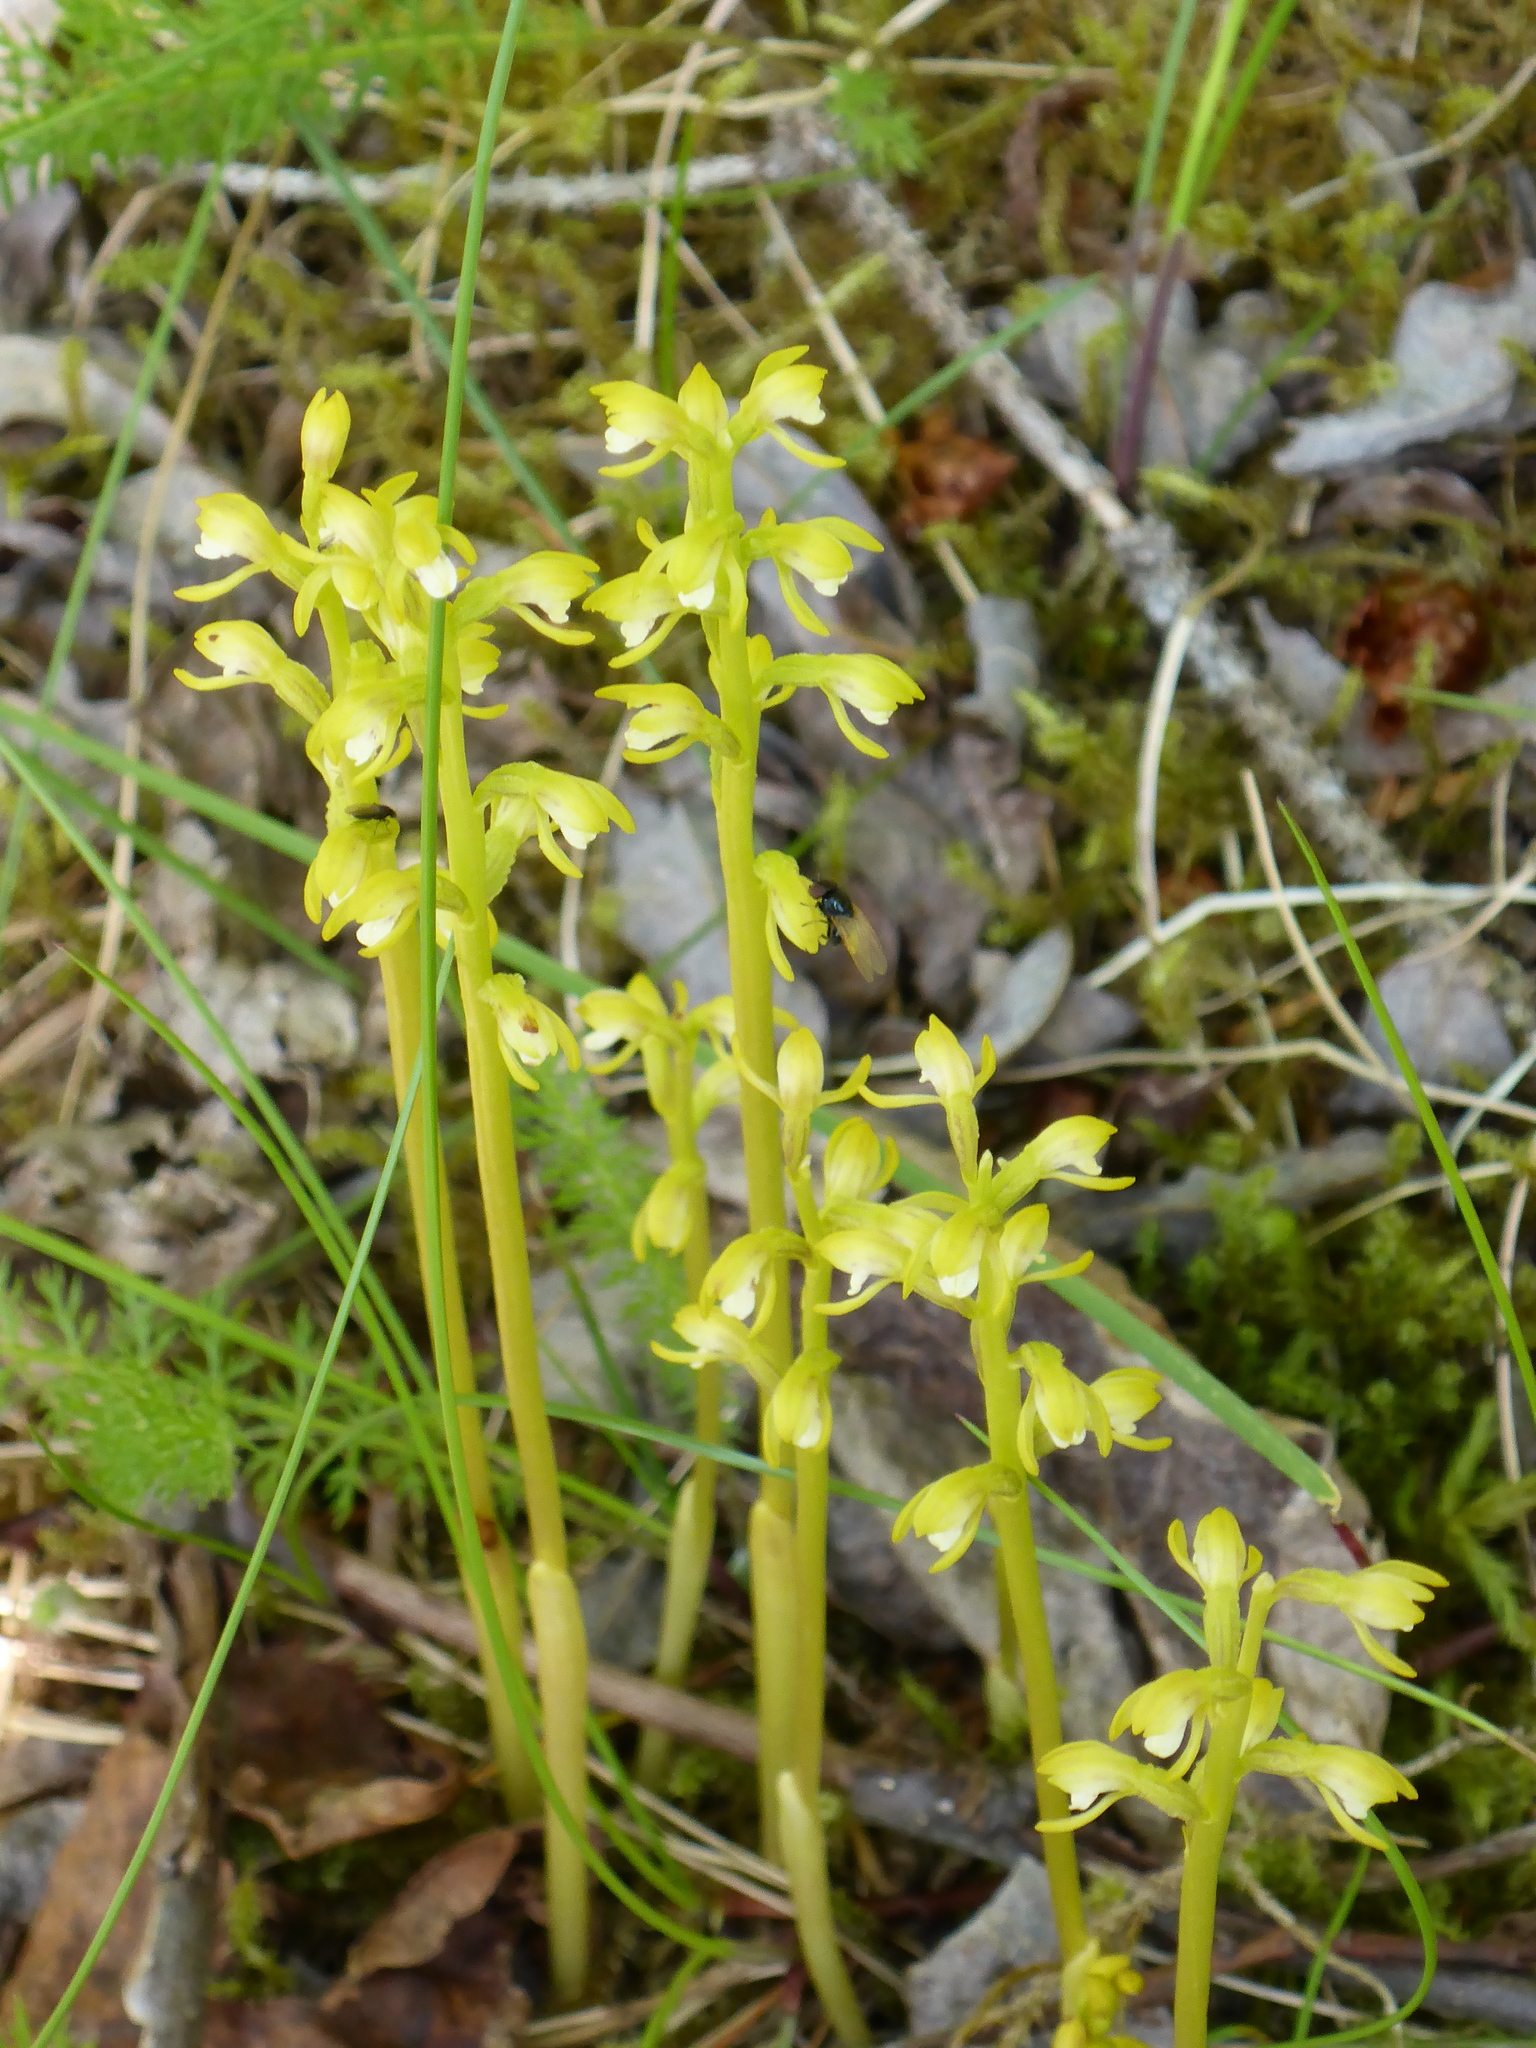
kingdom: Plantae
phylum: Tracheophyta
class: Liliopsida
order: Asparagales
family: Orchidaceae
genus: Corallorhiza
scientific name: Corallorhiza trifida
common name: Yellow coralroot
